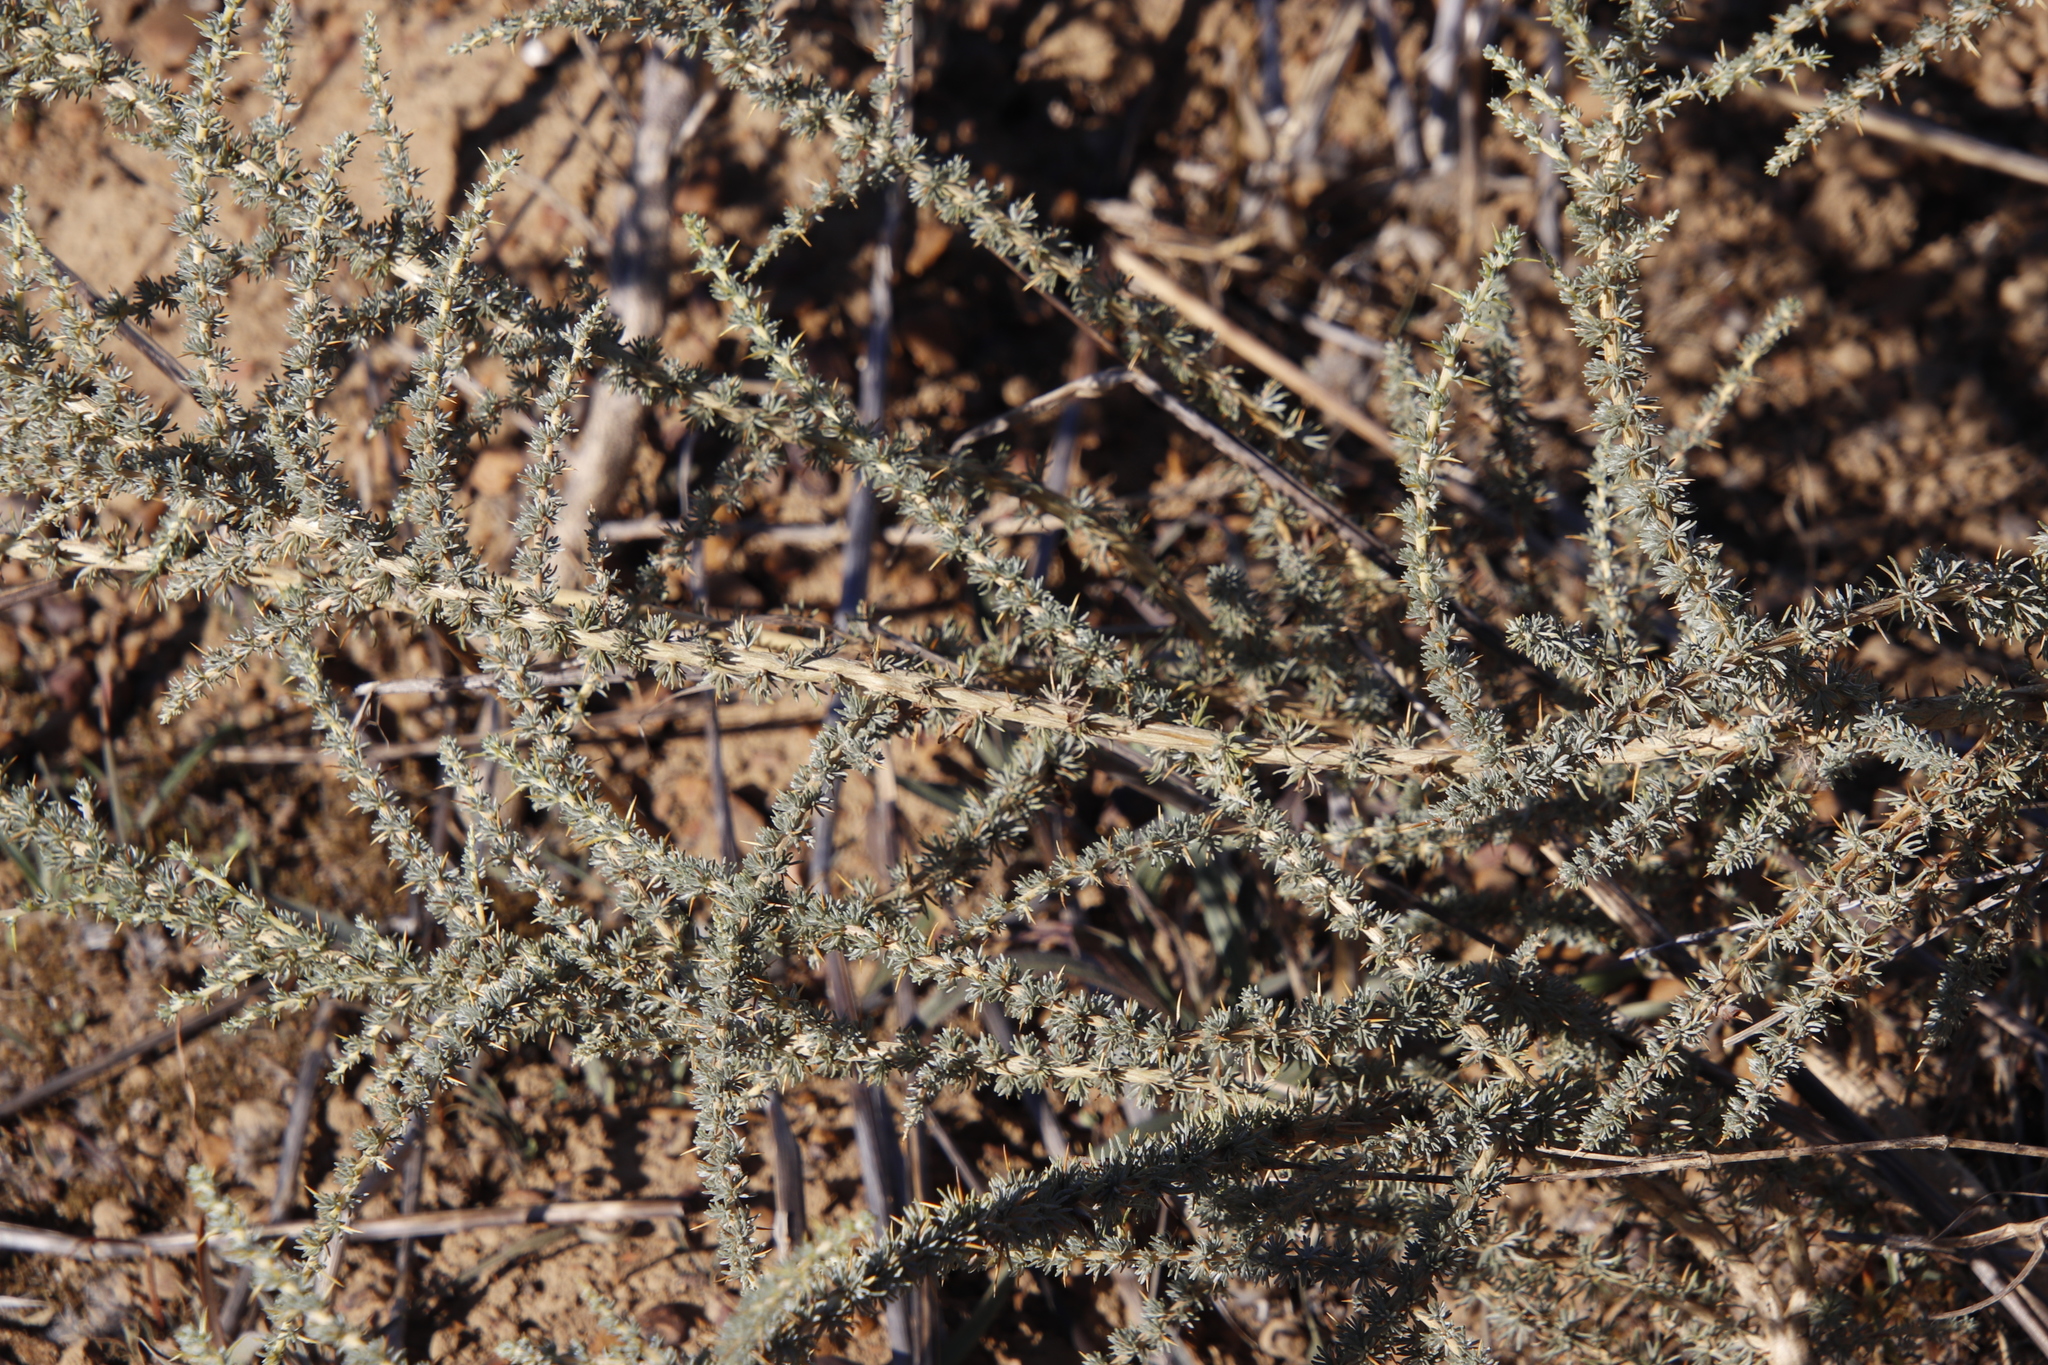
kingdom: Plantae
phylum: Tracheophyta
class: Magnoliopsida
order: Fabales
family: Fabaceae
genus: Aspalathus
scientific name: Aspalathus acanthophylla
